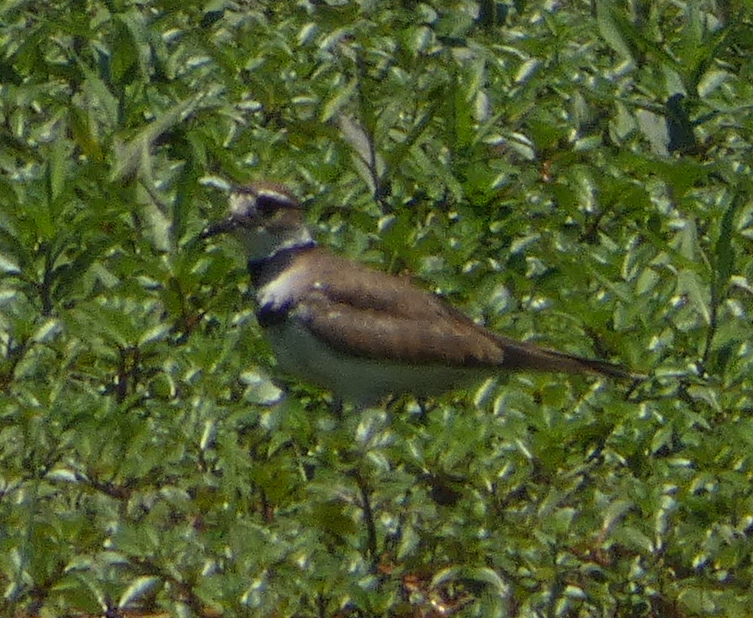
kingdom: Animalia
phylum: Chordata
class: Aves
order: Charadriiformes
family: Charadriidae
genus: Charadrius
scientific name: Charadrius vociferus
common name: Killdeer
